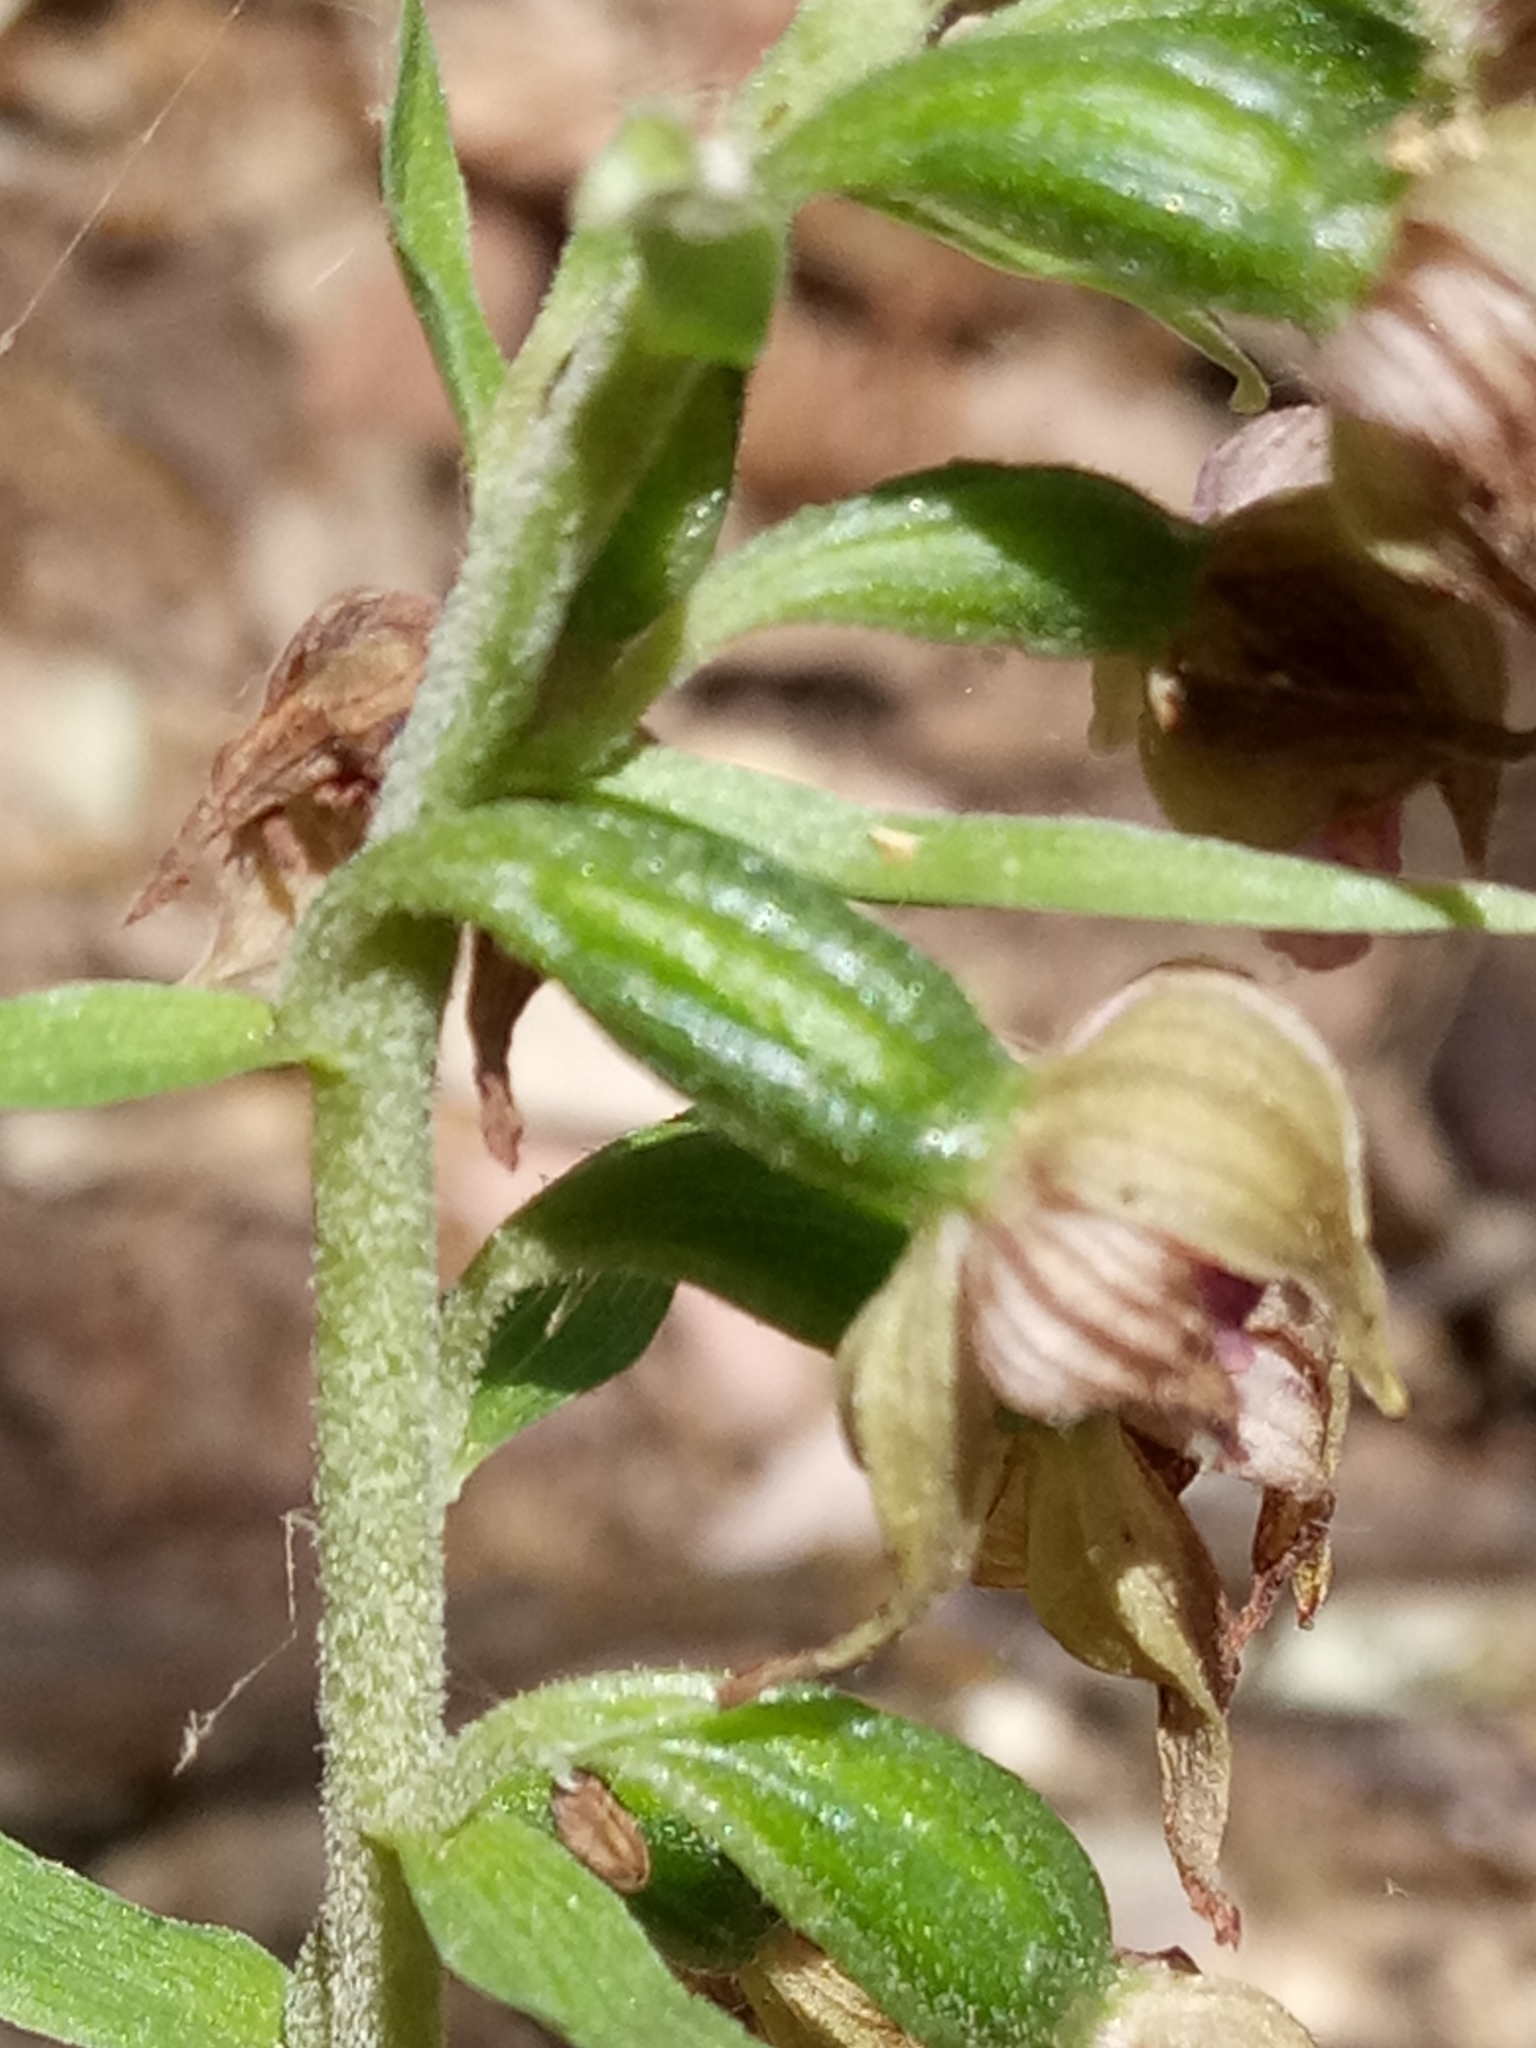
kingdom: Plantae
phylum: Tracheophyta
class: Liliopsida
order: Asparagales
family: Orchidaceae
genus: Epipactis
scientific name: Epipactis helleborine
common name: Broad-leaved helleborine
